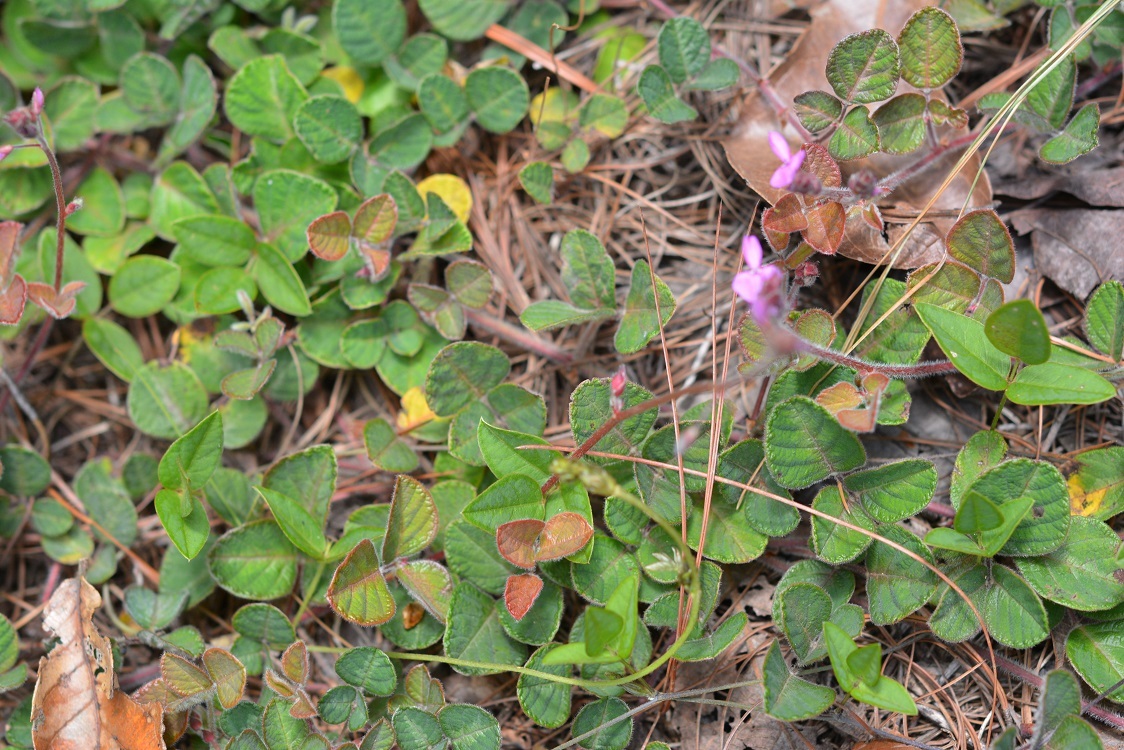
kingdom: Plantae
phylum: Tracheophyta
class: Magnoliopsida
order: Fabales
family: Fabaceae
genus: Desmodium
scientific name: Desmodium molliculum
